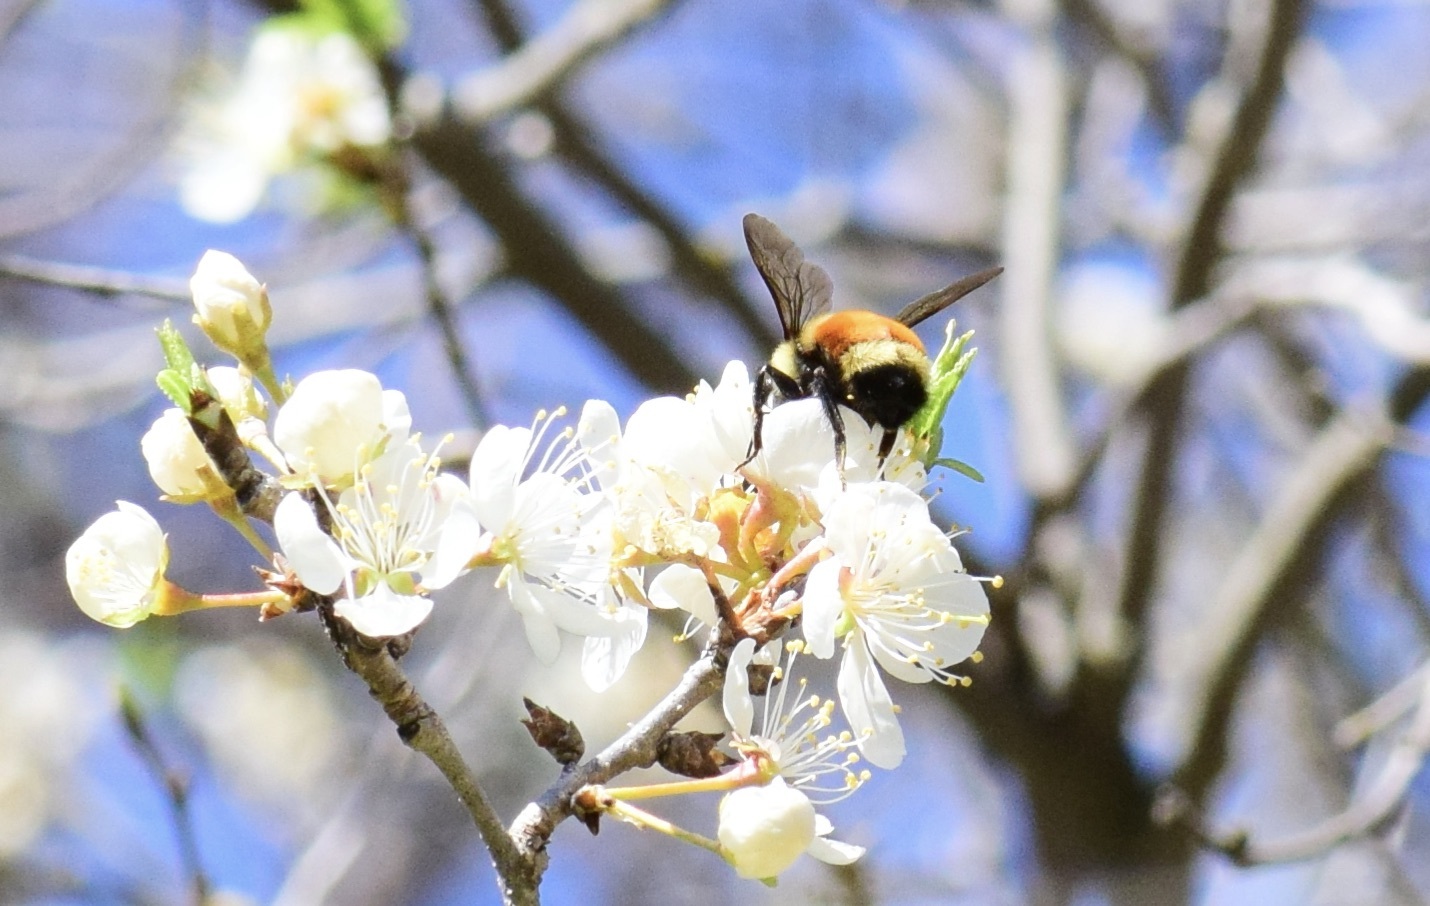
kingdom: Animalia
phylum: Arthropoda
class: Insecta
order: Hymenoptera
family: Apidae
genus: Bombus
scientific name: Bombus ternarius
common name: Tri-colored bumble bee
